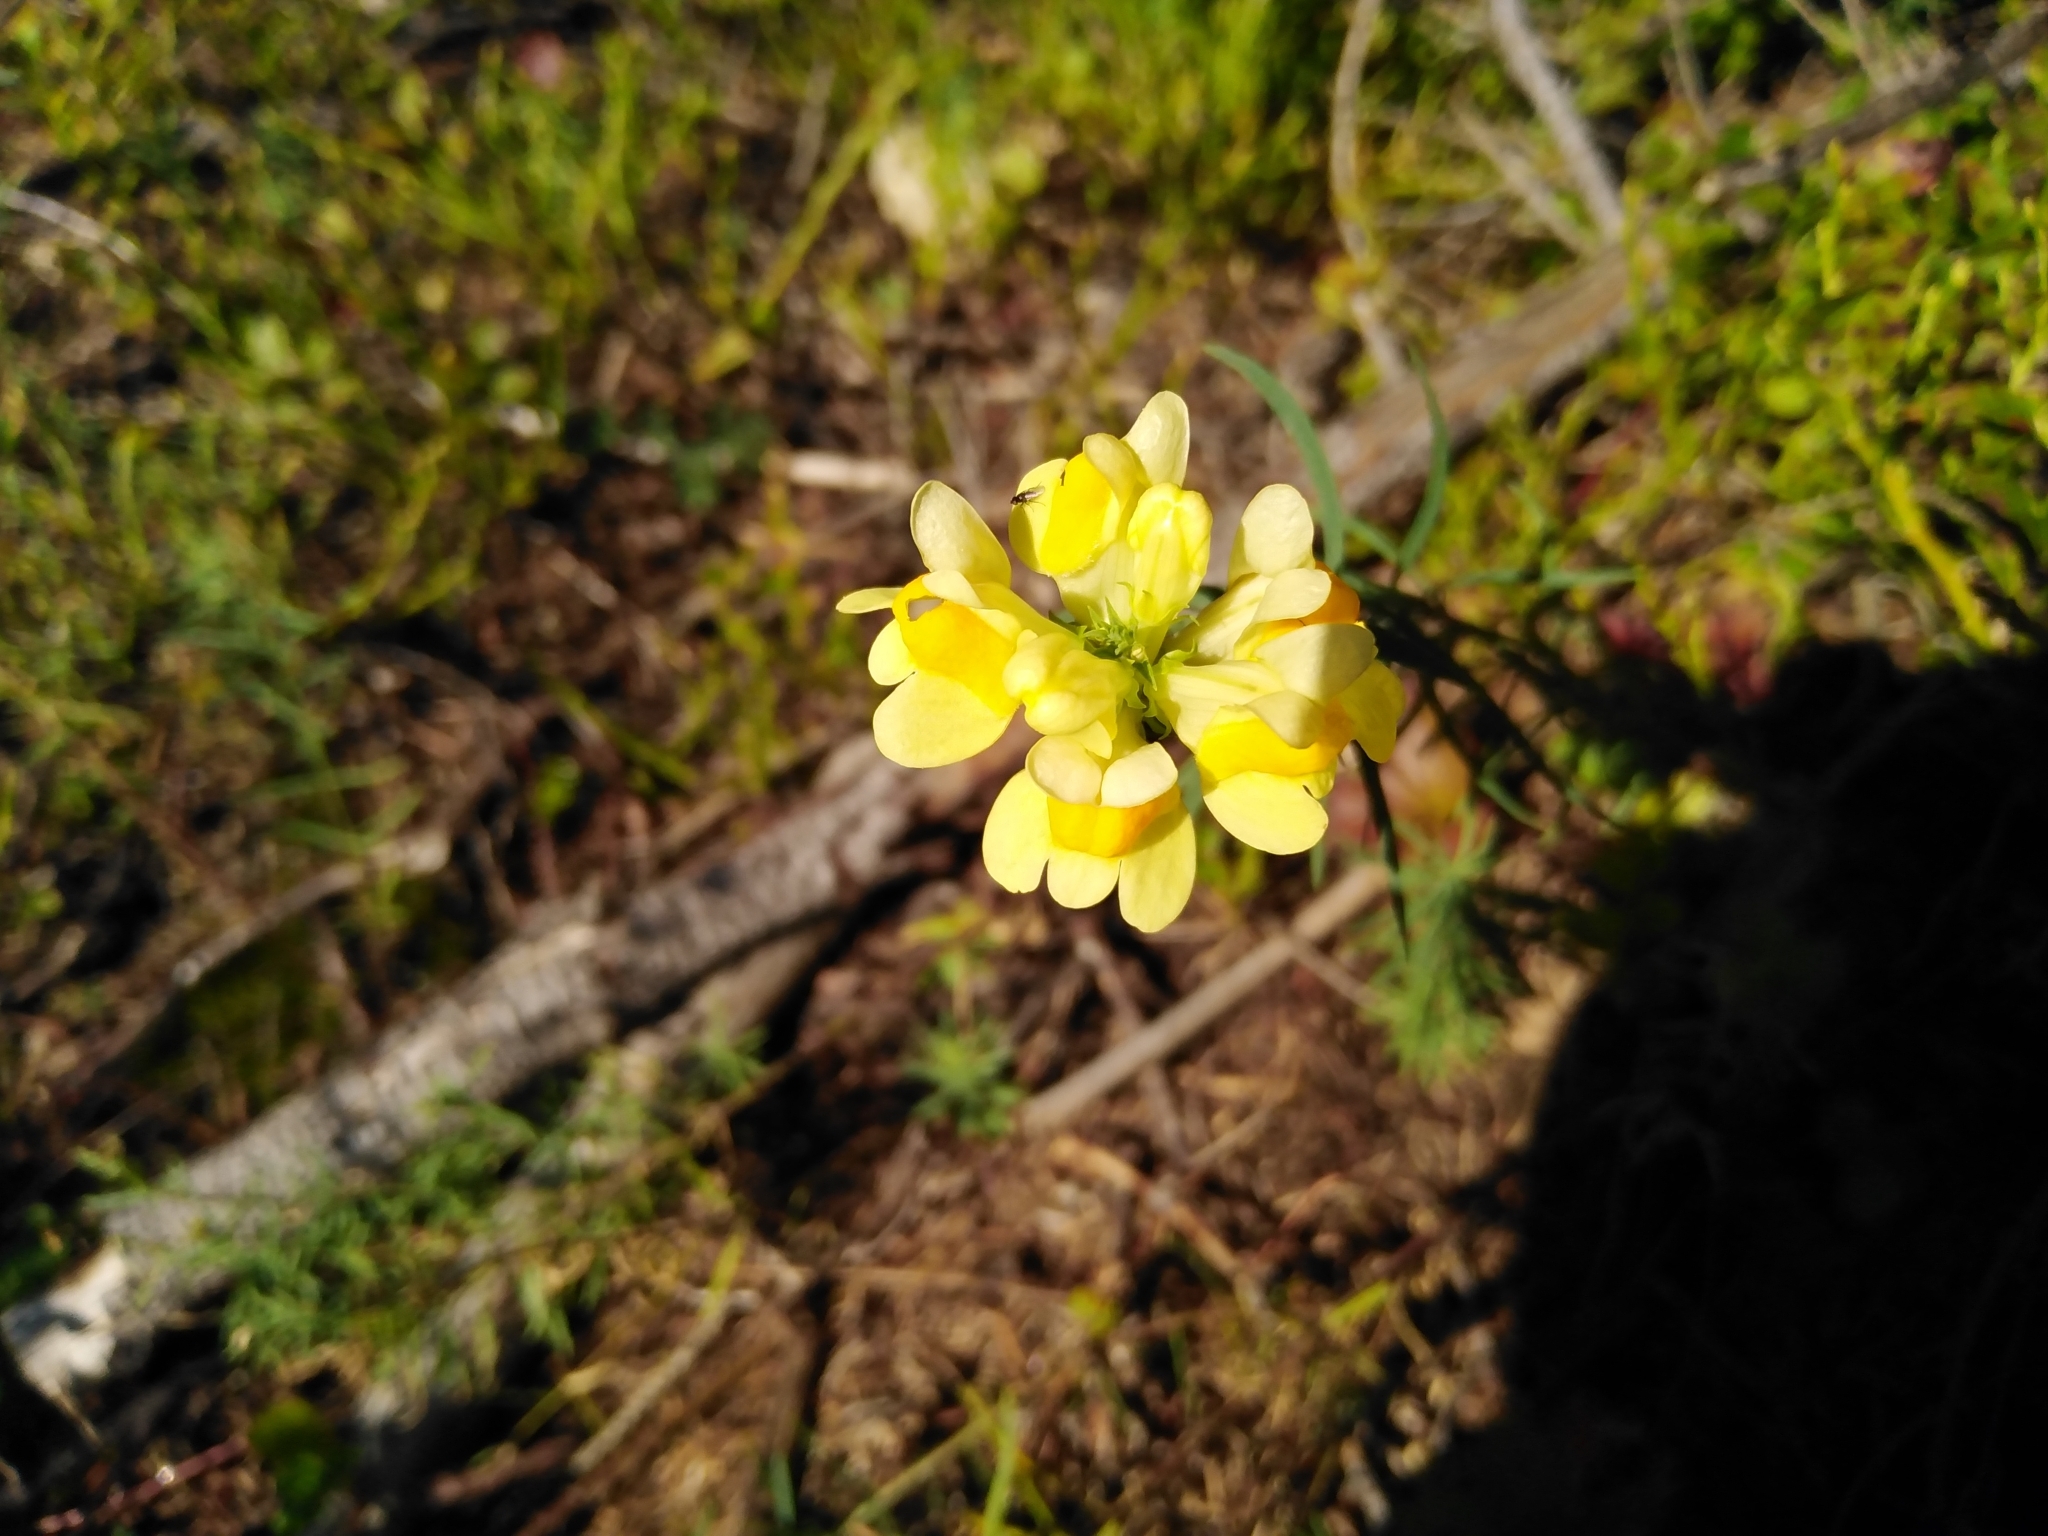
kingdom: Plantae
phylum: Tracheophyta
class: Magnoliopsida
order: Lamiales
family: Plantaginaceae
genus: Linaria
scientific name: Linaria vulgaris
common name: Butter and eggs
